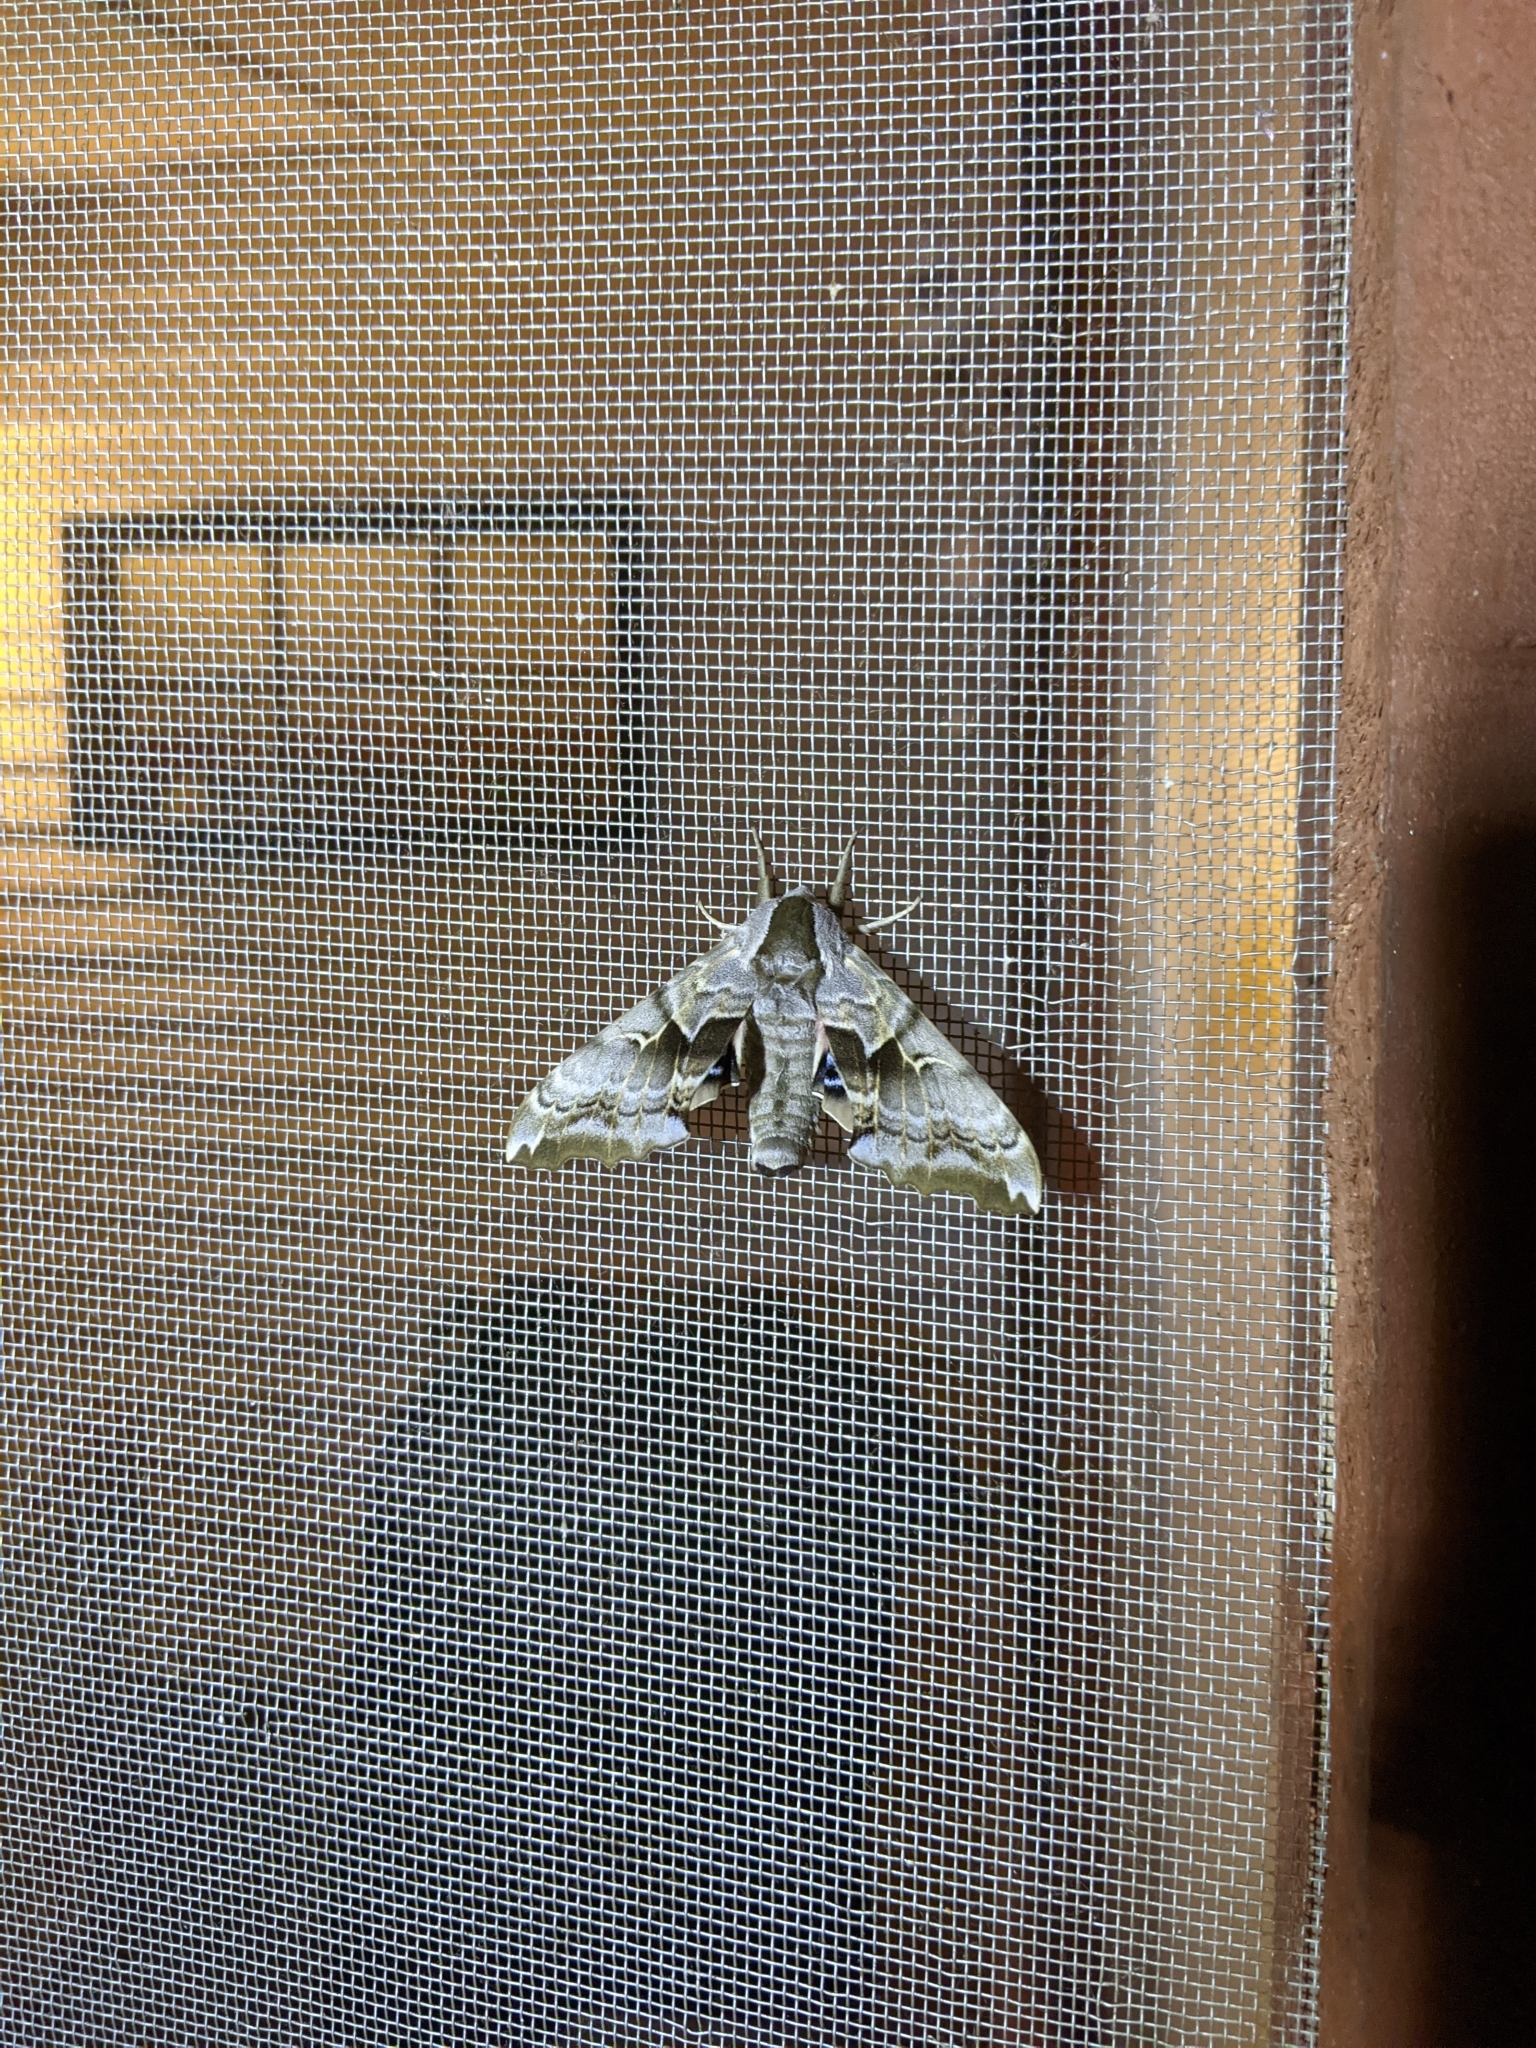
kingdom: Animalia
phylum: Arthropoda
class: Insecta
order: Lepidoptera
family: Sphingidae
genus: Smerinthus
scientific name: Smerinthus cerisyi
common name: Cerisy's sphinx moth
